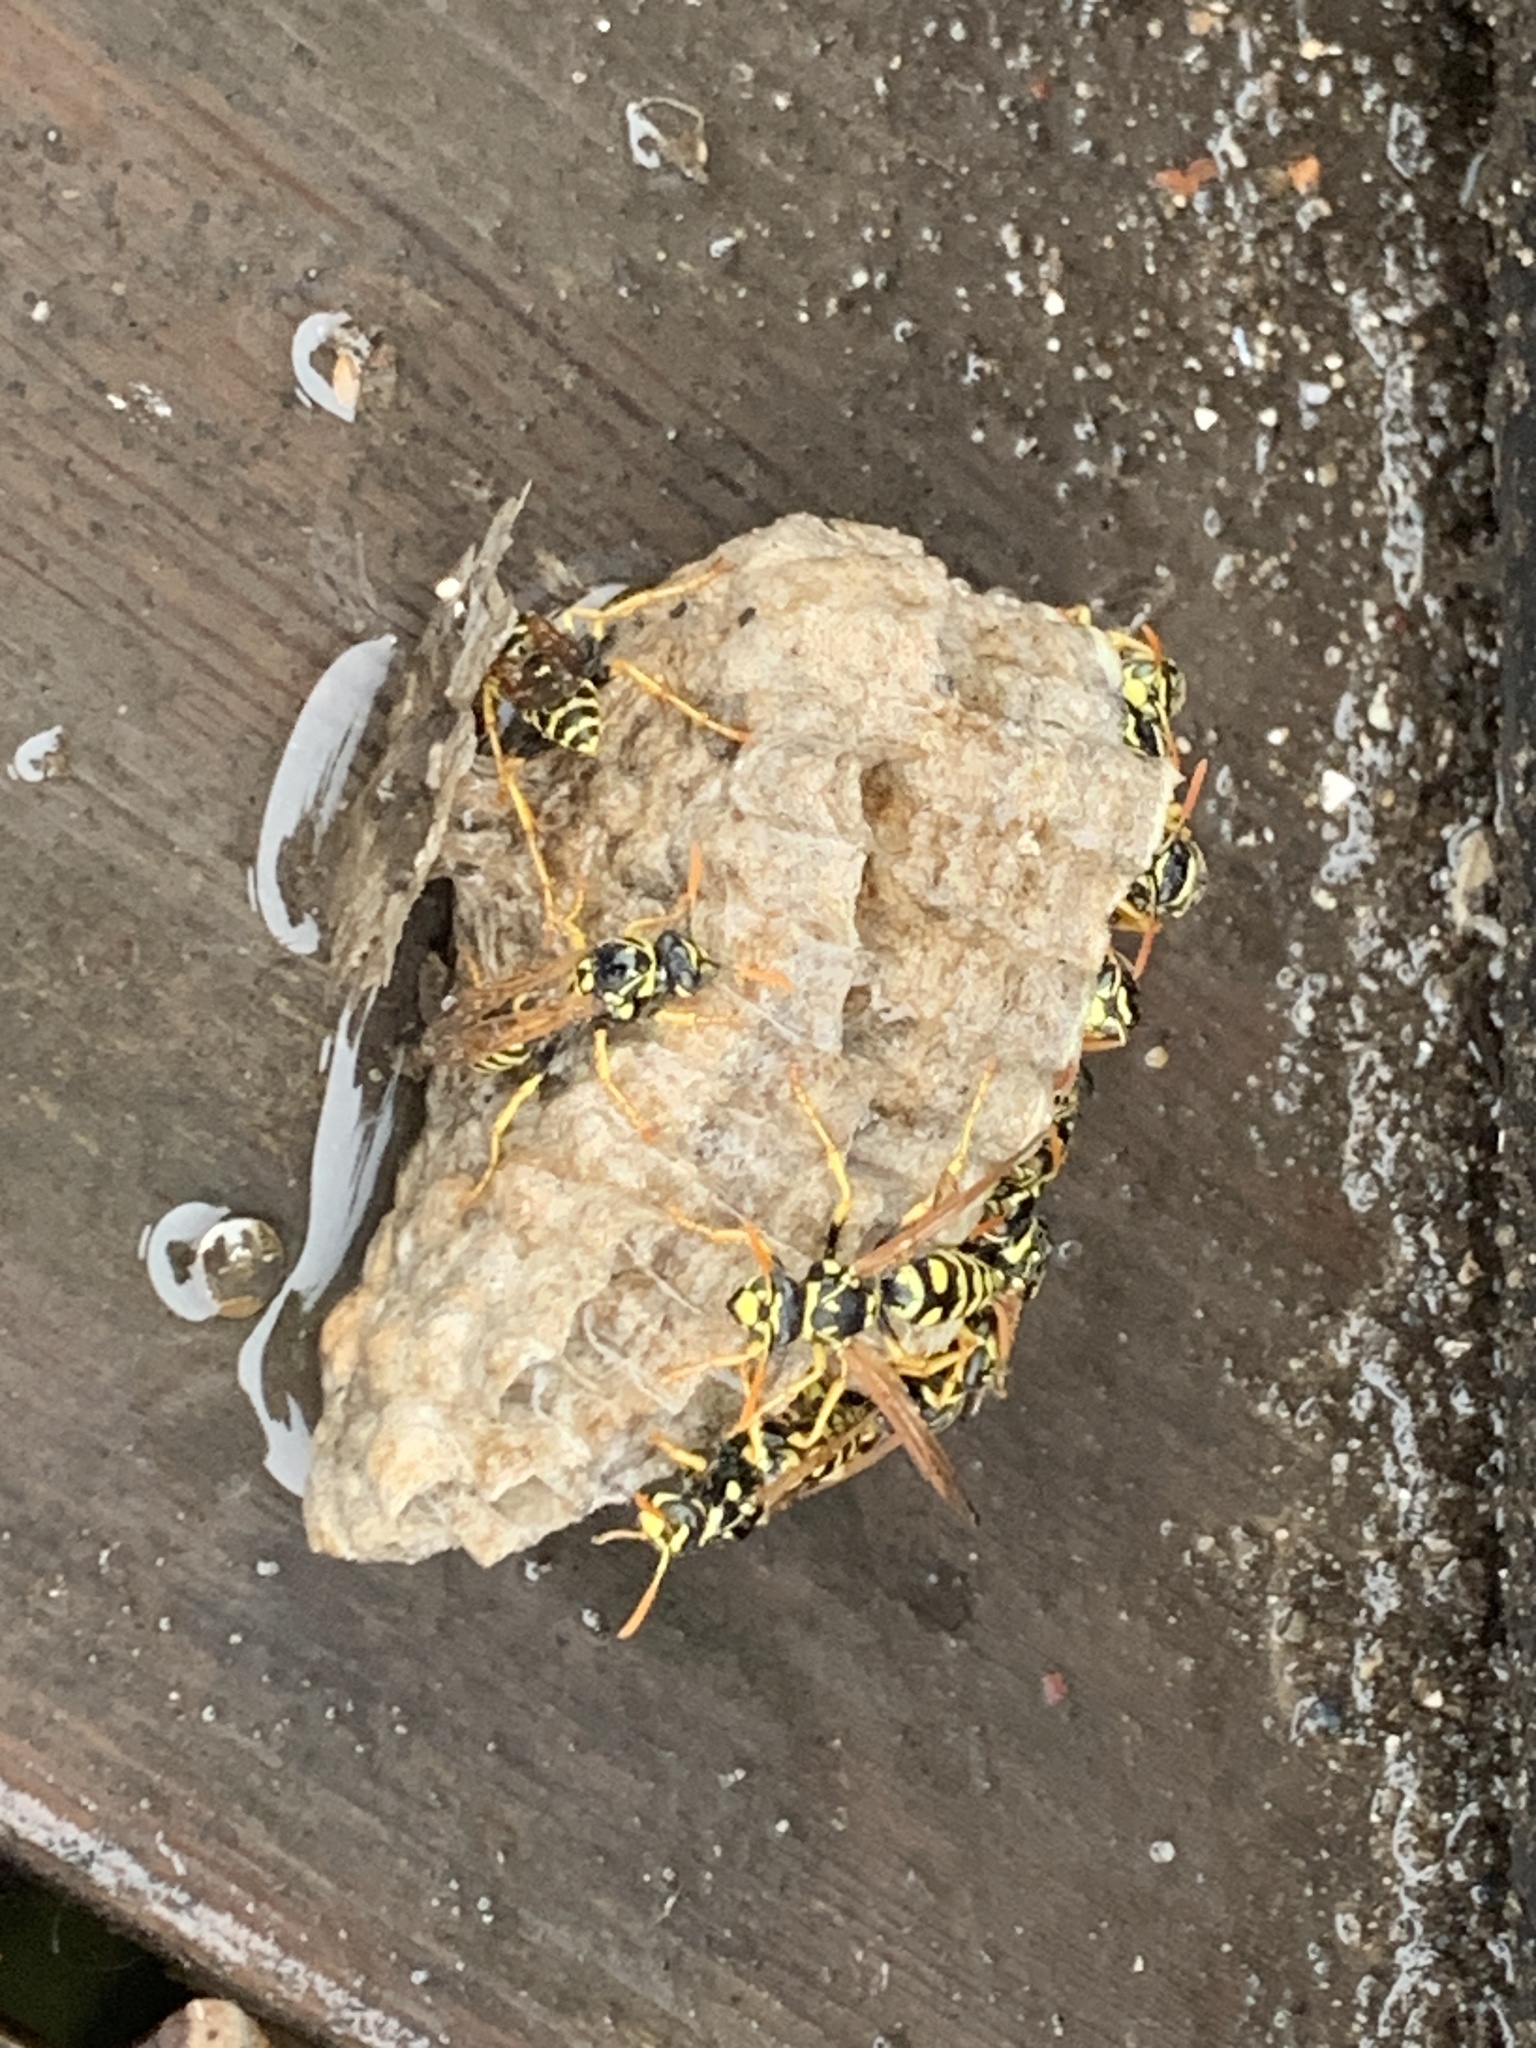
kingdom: Animalia
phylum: Arthropoda
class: Insecta
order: Hymenoptera
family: Eumenidae
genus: Polistes
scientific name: Polistes dominula
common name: Paper wasp
